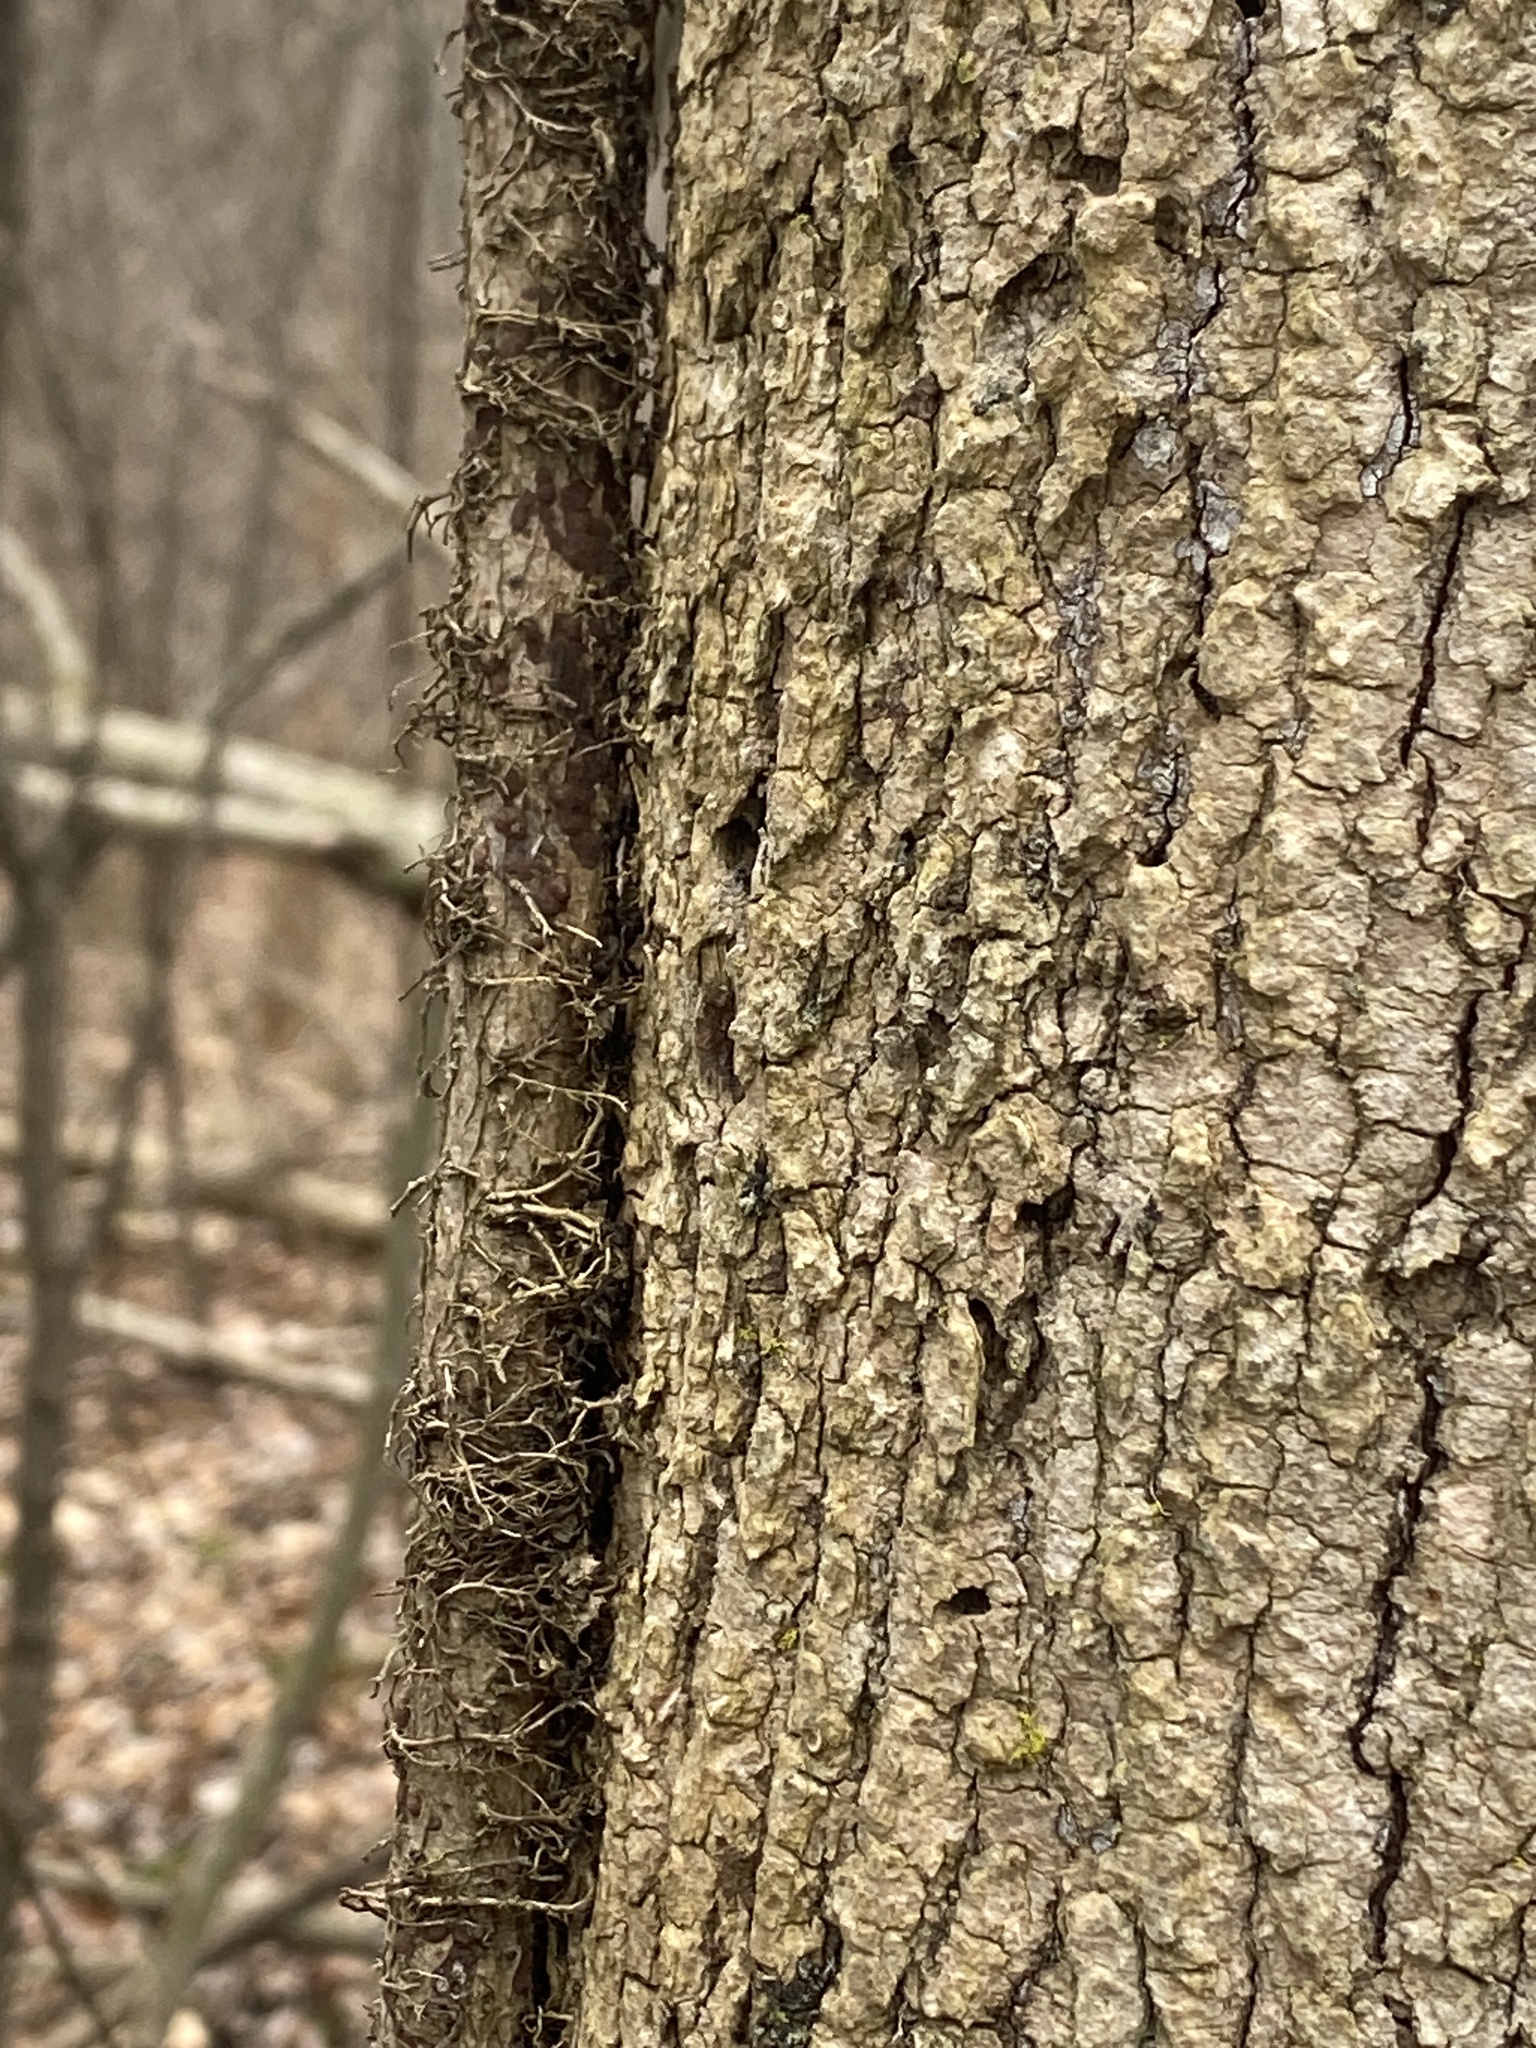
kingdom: Plantae
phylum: Tracheophyta
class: Magnoliopsida
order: Sapindales
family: Anacardiaceae
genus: Toxicodendron
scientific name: Toxicodendron radicans
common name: Poison ivy
